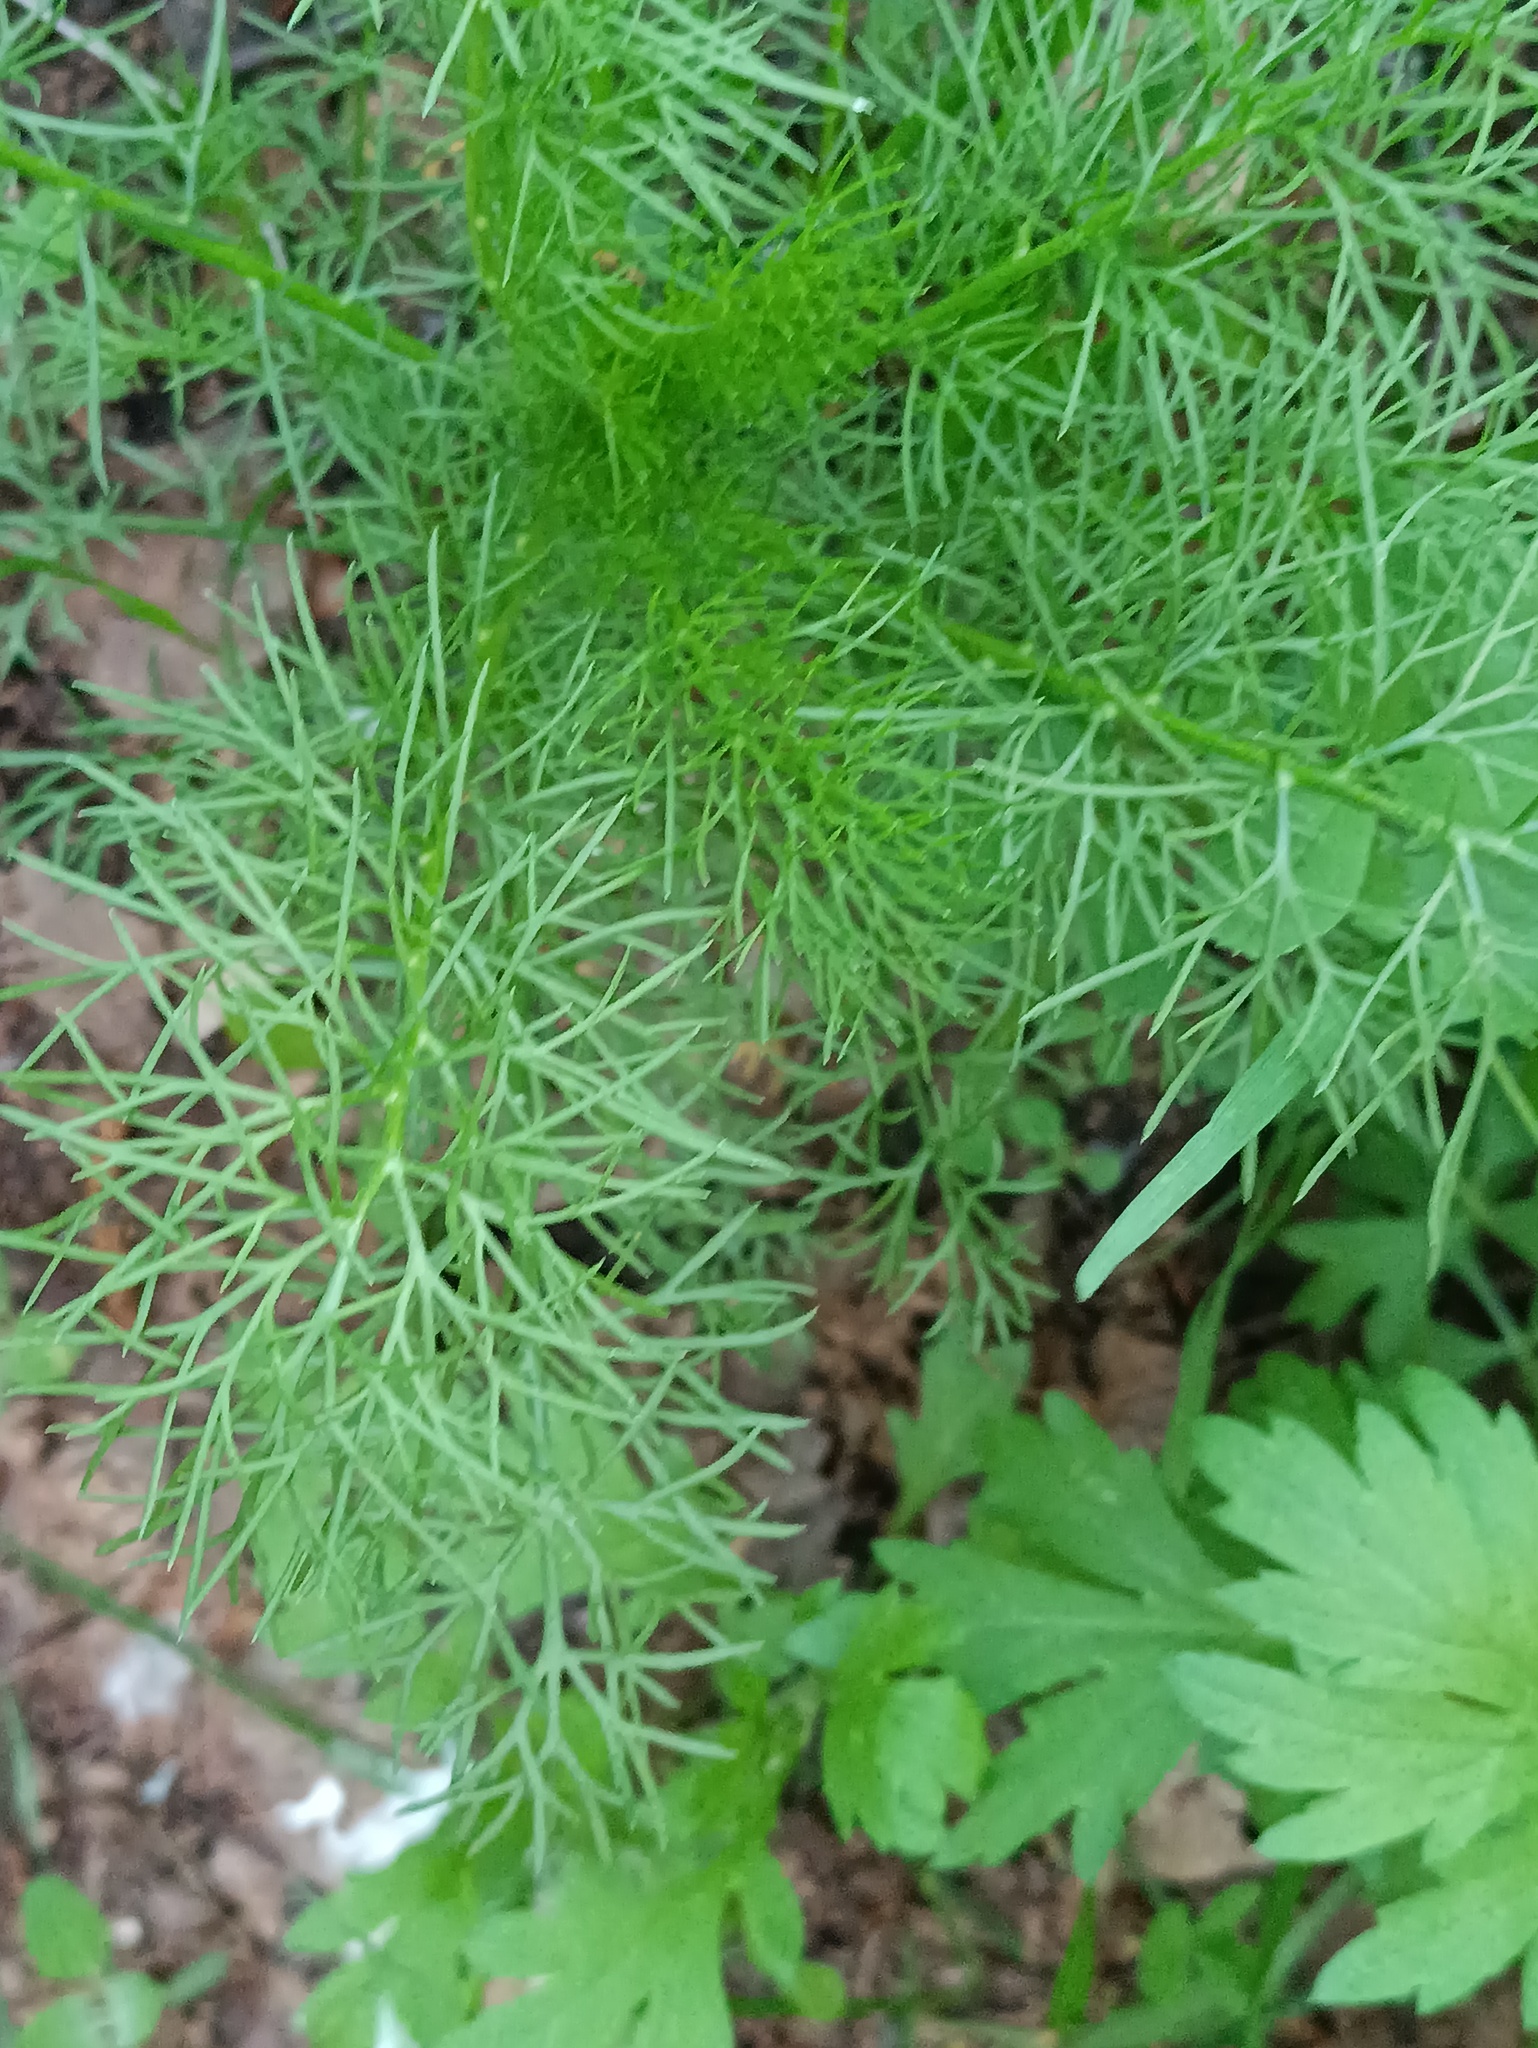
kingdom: Plantae
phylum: Tracheophyta
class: Magnoliopsida
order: Asterales
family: Asteraceae
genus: Tripleurospermum
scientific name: Tripleurospermum inodorum
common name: Scentless mayweed
